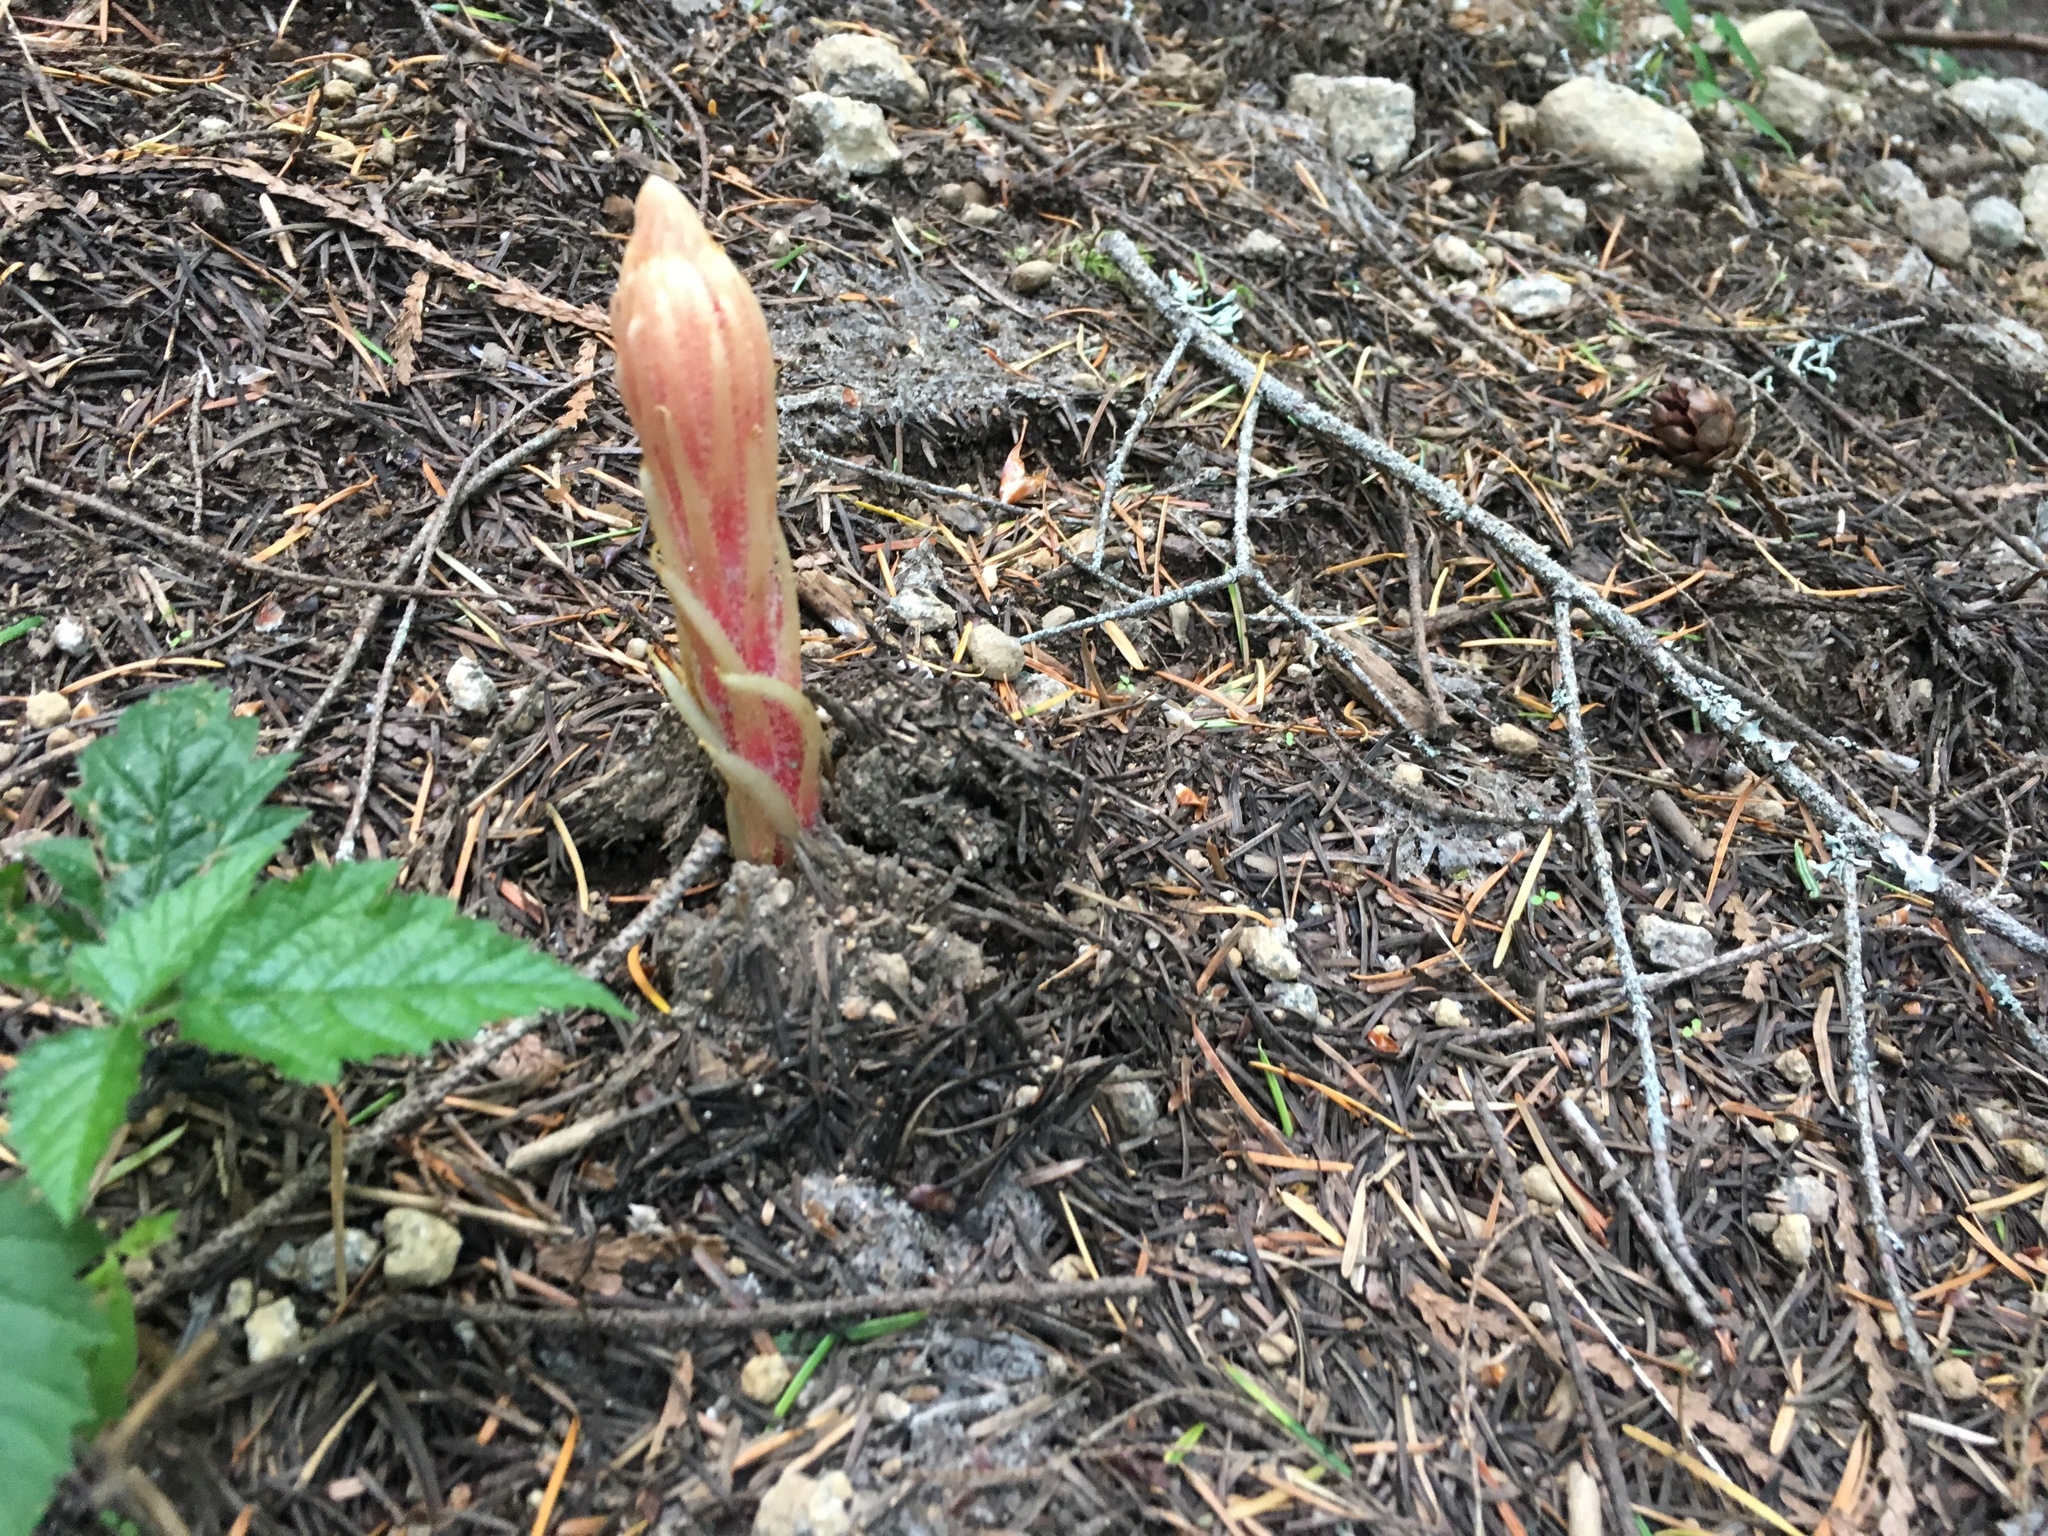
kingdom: Plantae
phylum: Tracheophyta
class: Magnoliopsida
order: Ericales
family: Ericaceae
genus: Pterospora
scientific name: Pterospora andromedea
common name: Giant bird's-nest
